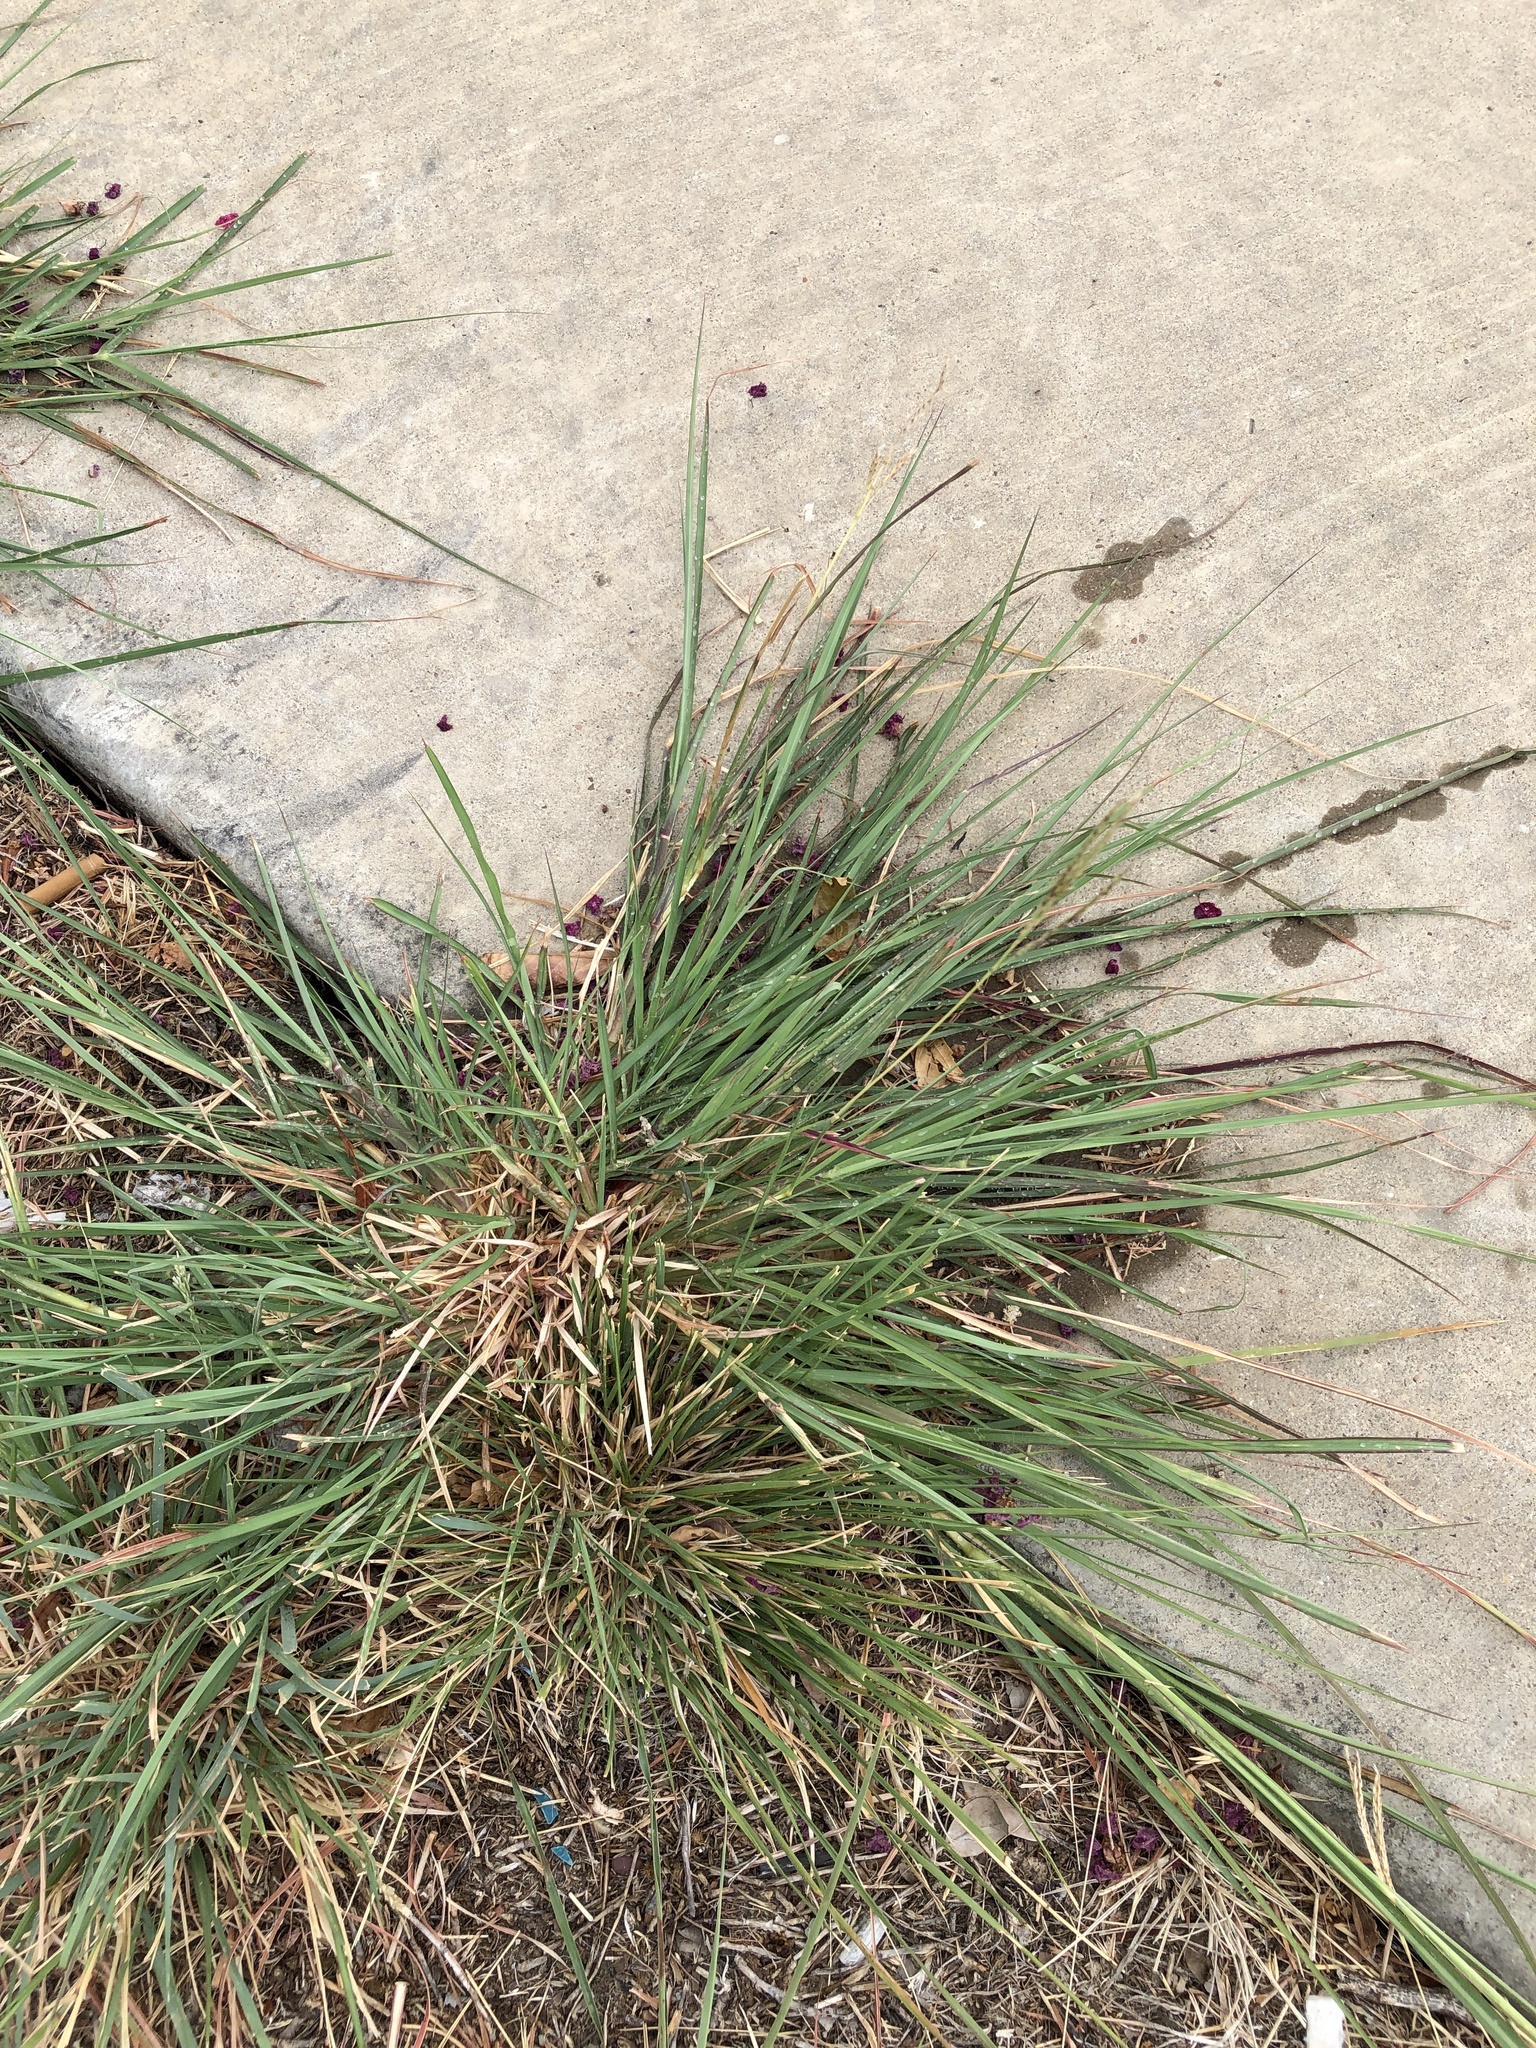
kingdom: Plantae
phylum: Tracheophyta
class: Liliopsida
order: Poales
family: Poaceae
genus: Bothriochloa
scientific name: Bothriochloa ischaemum
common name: Yellow bluestem
